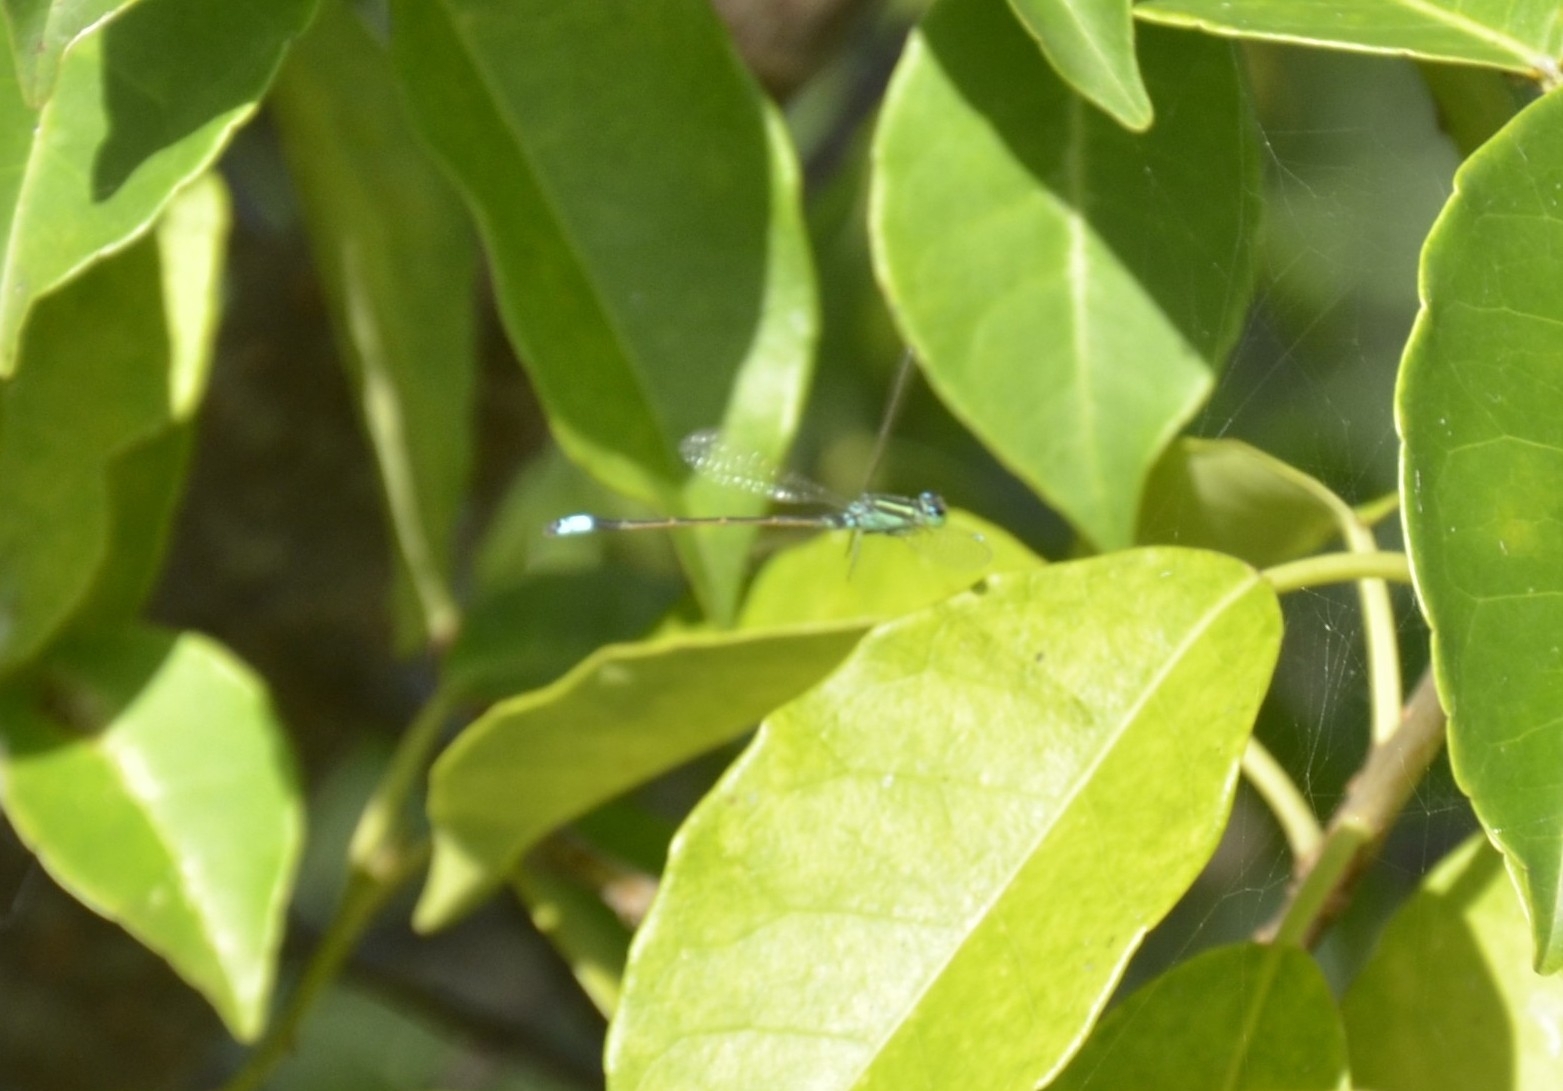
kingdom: Animalia
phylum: Arthropoda
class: Insecta
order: Odonata
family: Coenagrionidae
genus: Ischnura
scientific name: Ischnura senegalensis
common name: Tropical bluetail
